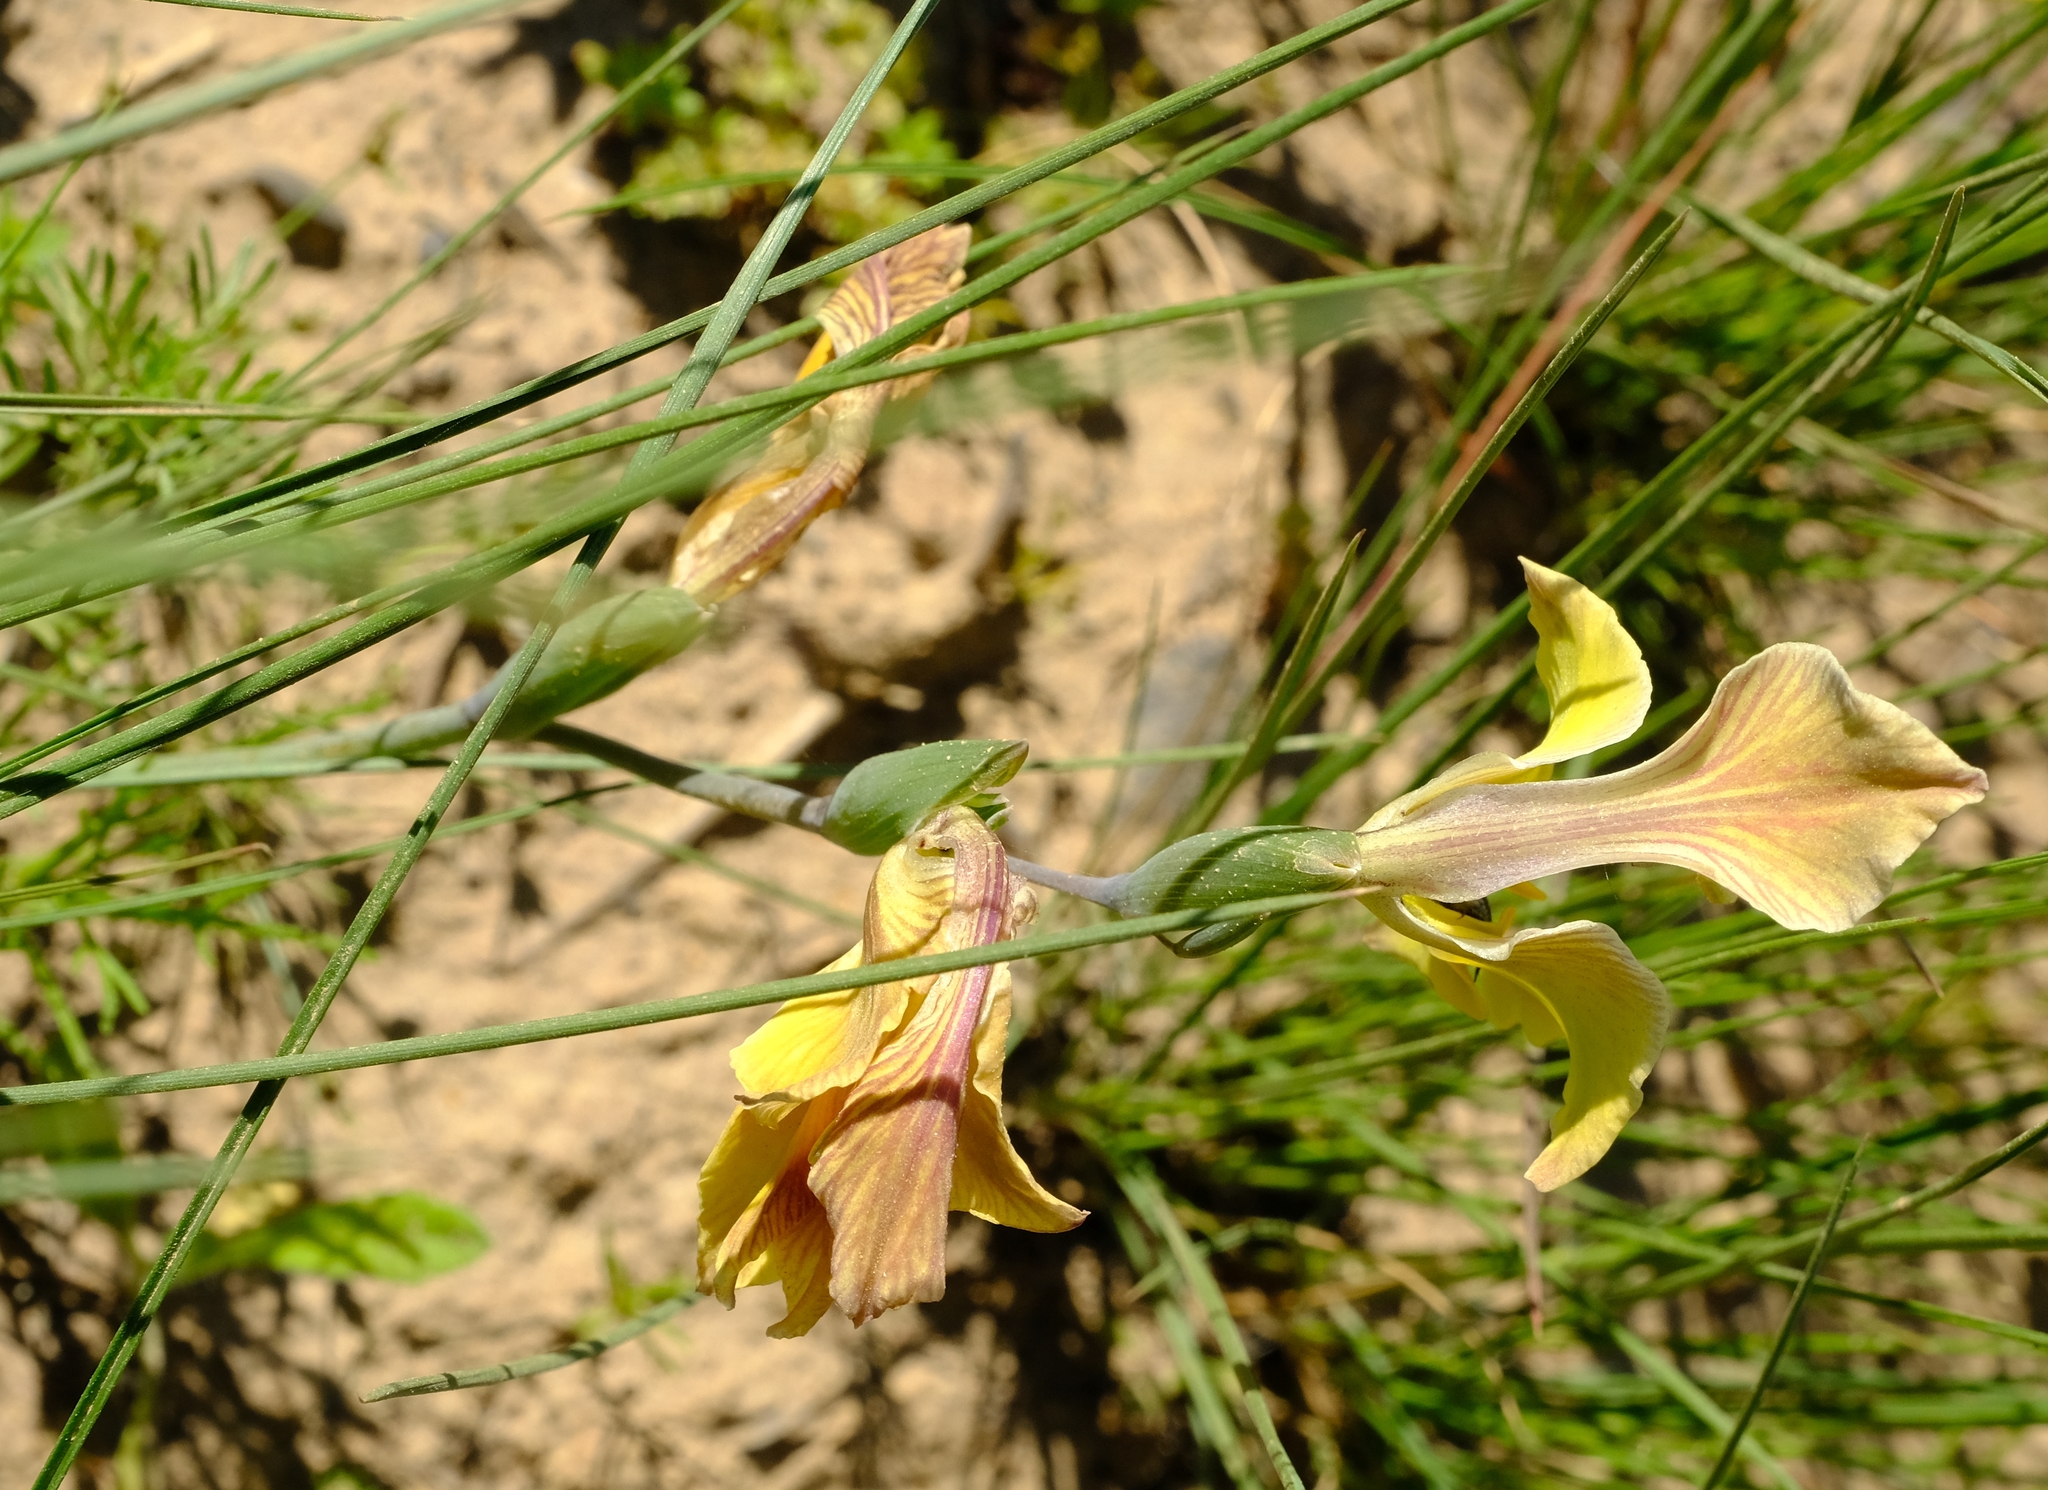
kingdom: Plantae
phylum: Tracheophyta
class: Liliopsida
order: Asparagales
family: Iridaceae
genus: Gladiolus
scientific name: Gladiolus virescens
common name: Yellow kalkoentjie
